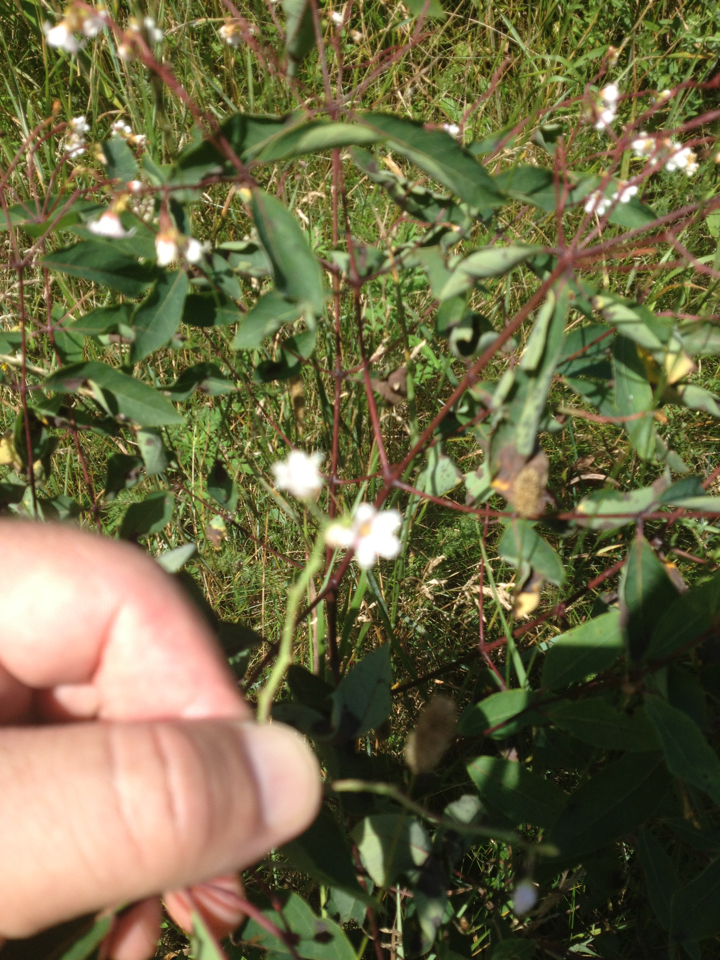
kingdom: Plantae
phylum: Tracheophyta
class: Magnoliopsida
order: Gentianales
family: Apocynaceae
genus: Apocynum
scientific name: Apocynum androsaemifolium
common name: Spreading dogbane
